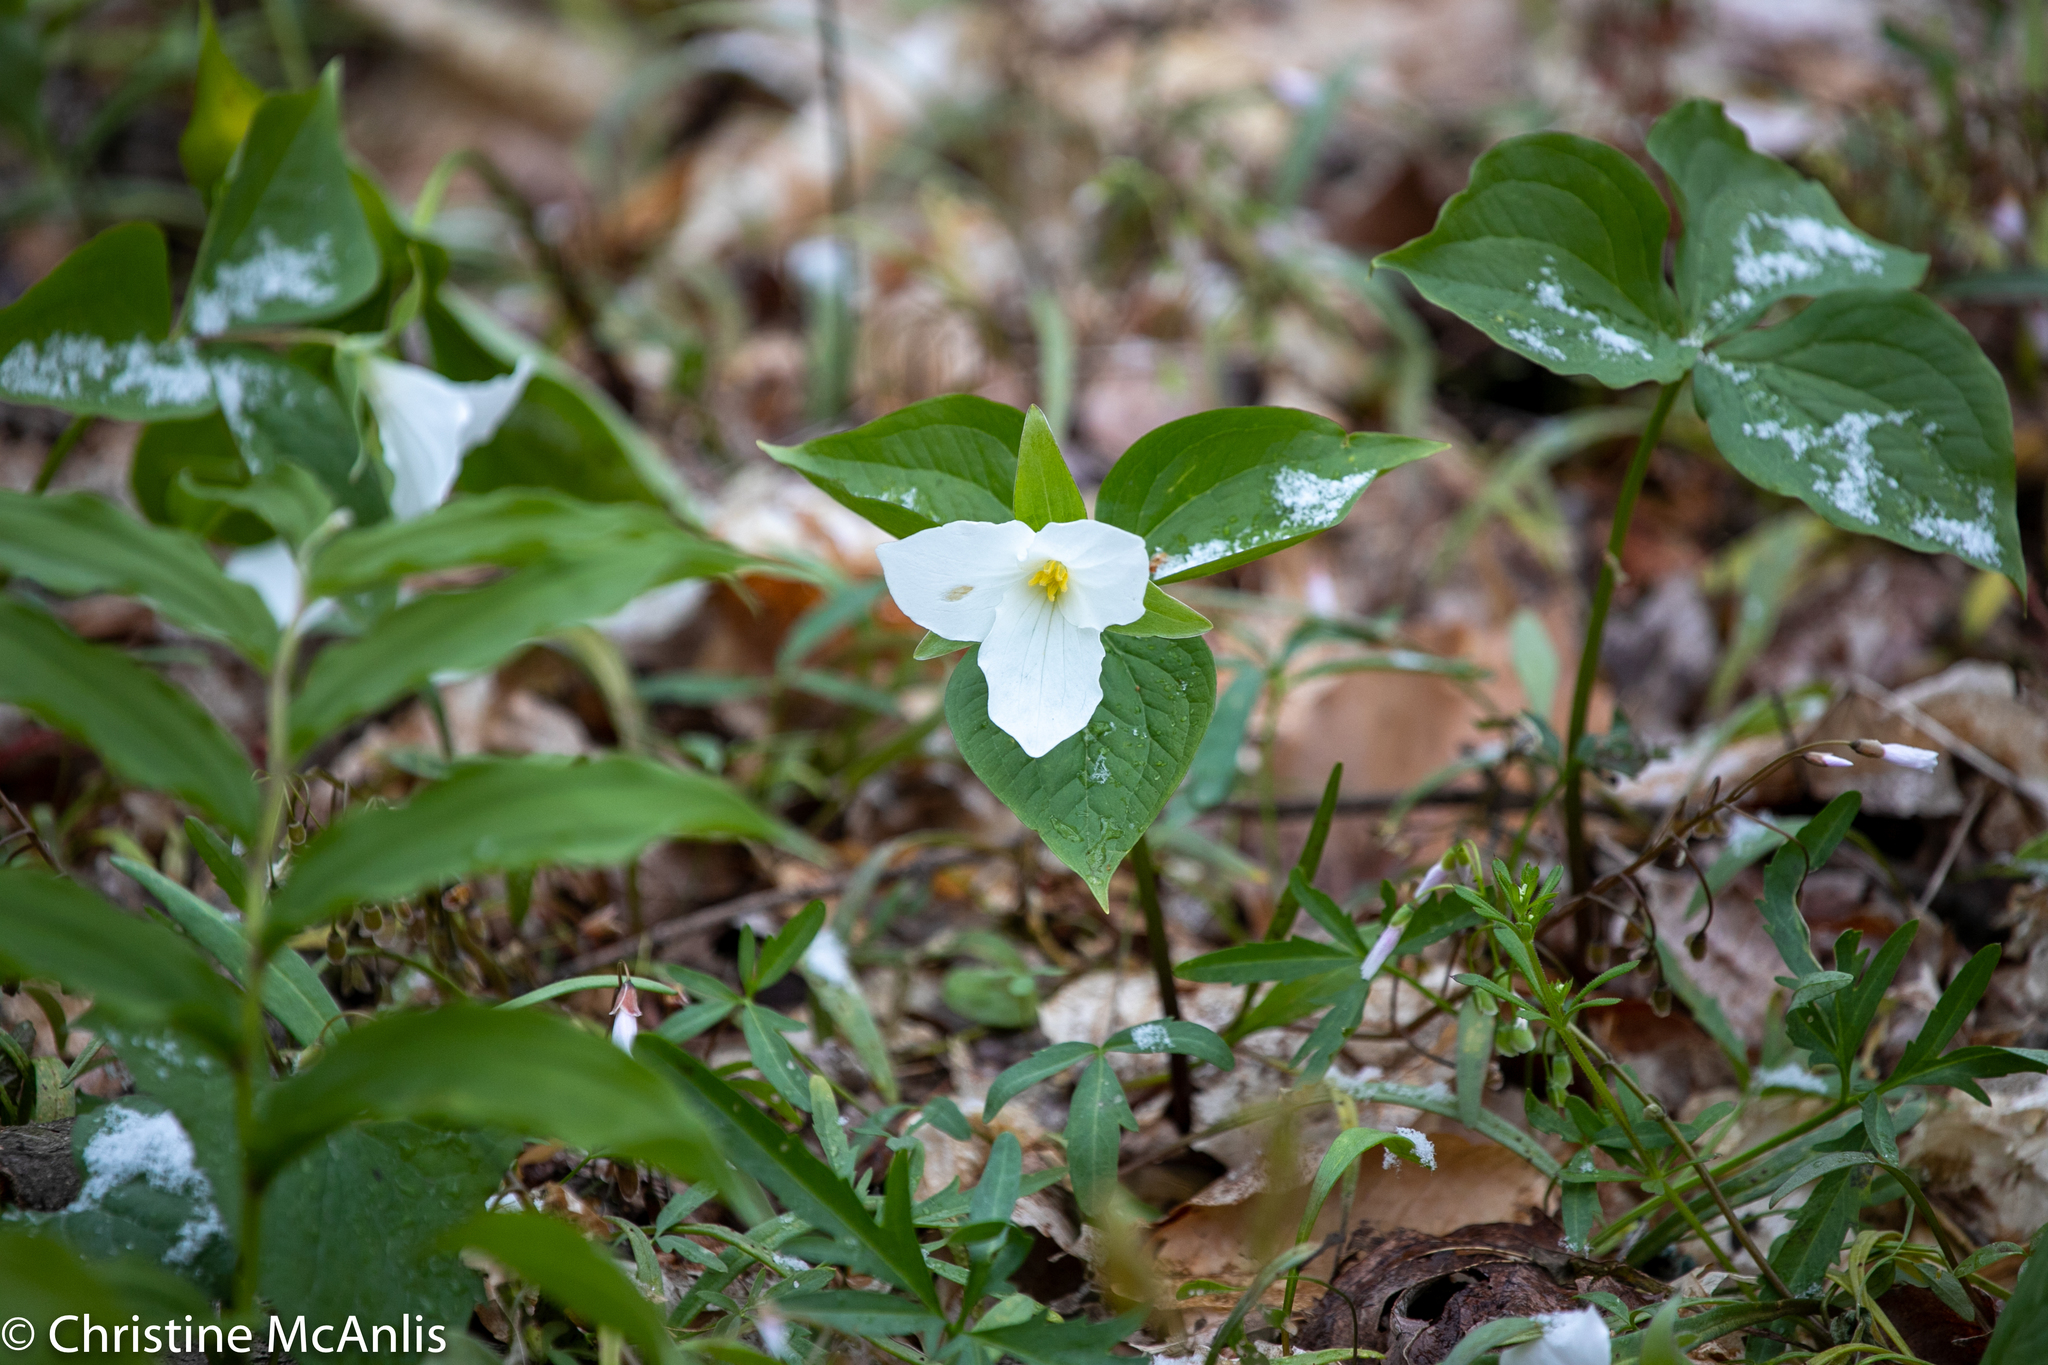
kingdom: Plantae
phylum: Tracheophyta
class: Liliopsida
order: Liliales
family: Melanthiaceae
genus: Trillium
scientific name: Trillium grandiflorum
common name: Great white trillium
